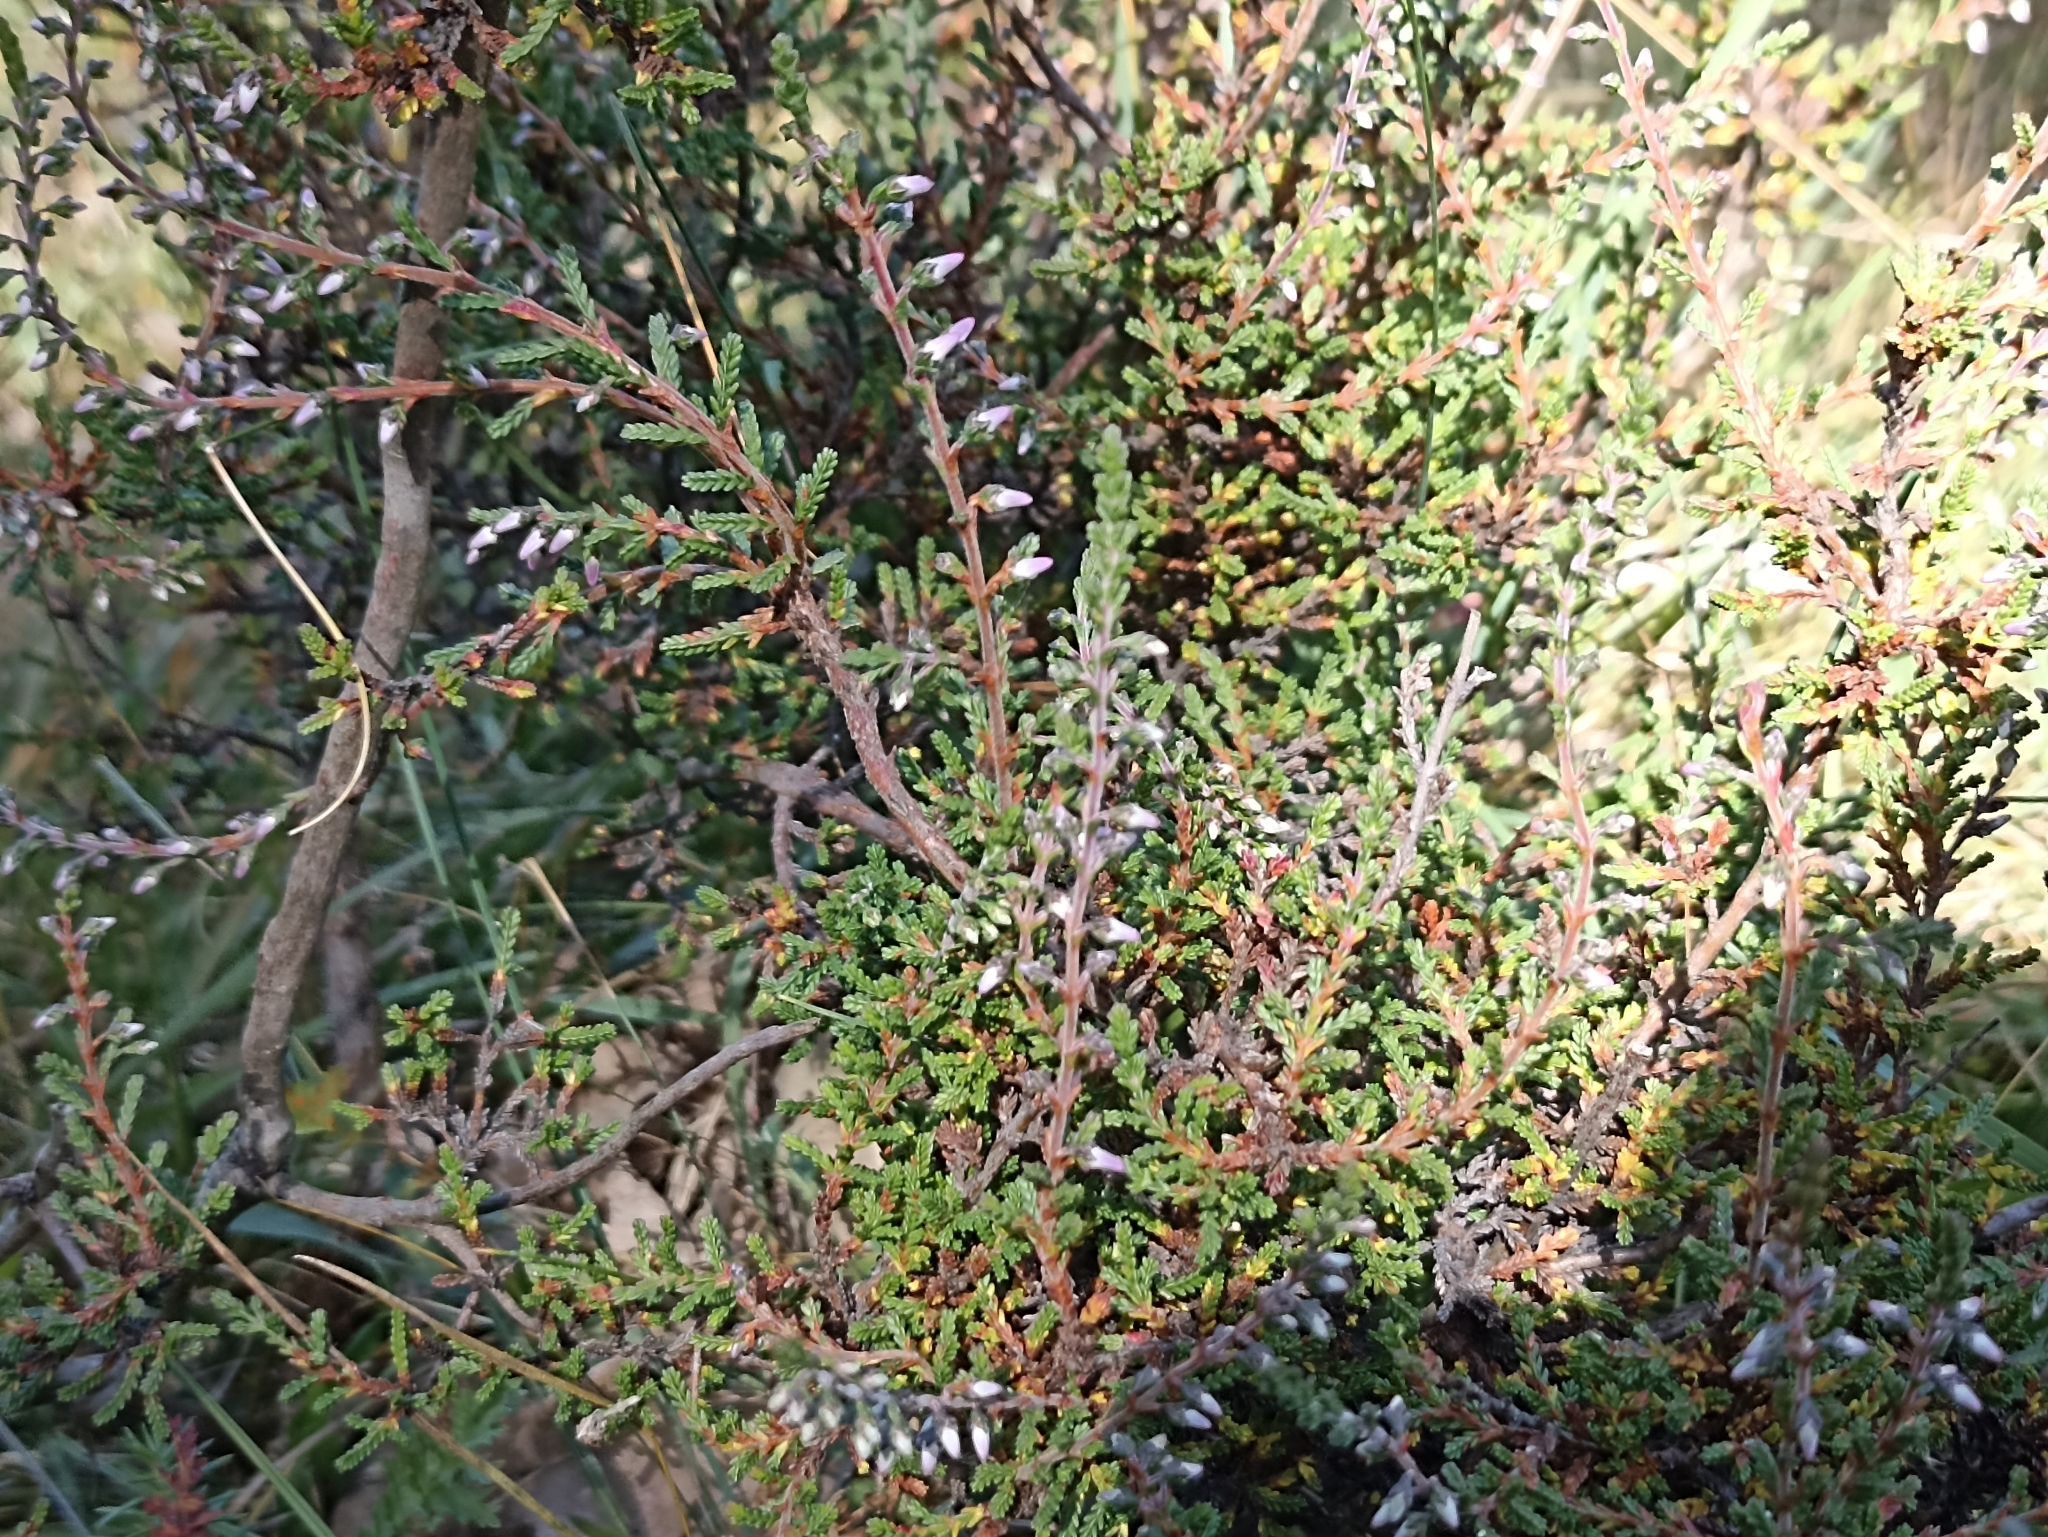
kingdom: Plantae
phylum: Tracheophyta
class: Magnoliopsida
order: Ericales
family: Ericaceae
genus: Calluna
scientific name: Calluna vulgaris
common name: Heather
